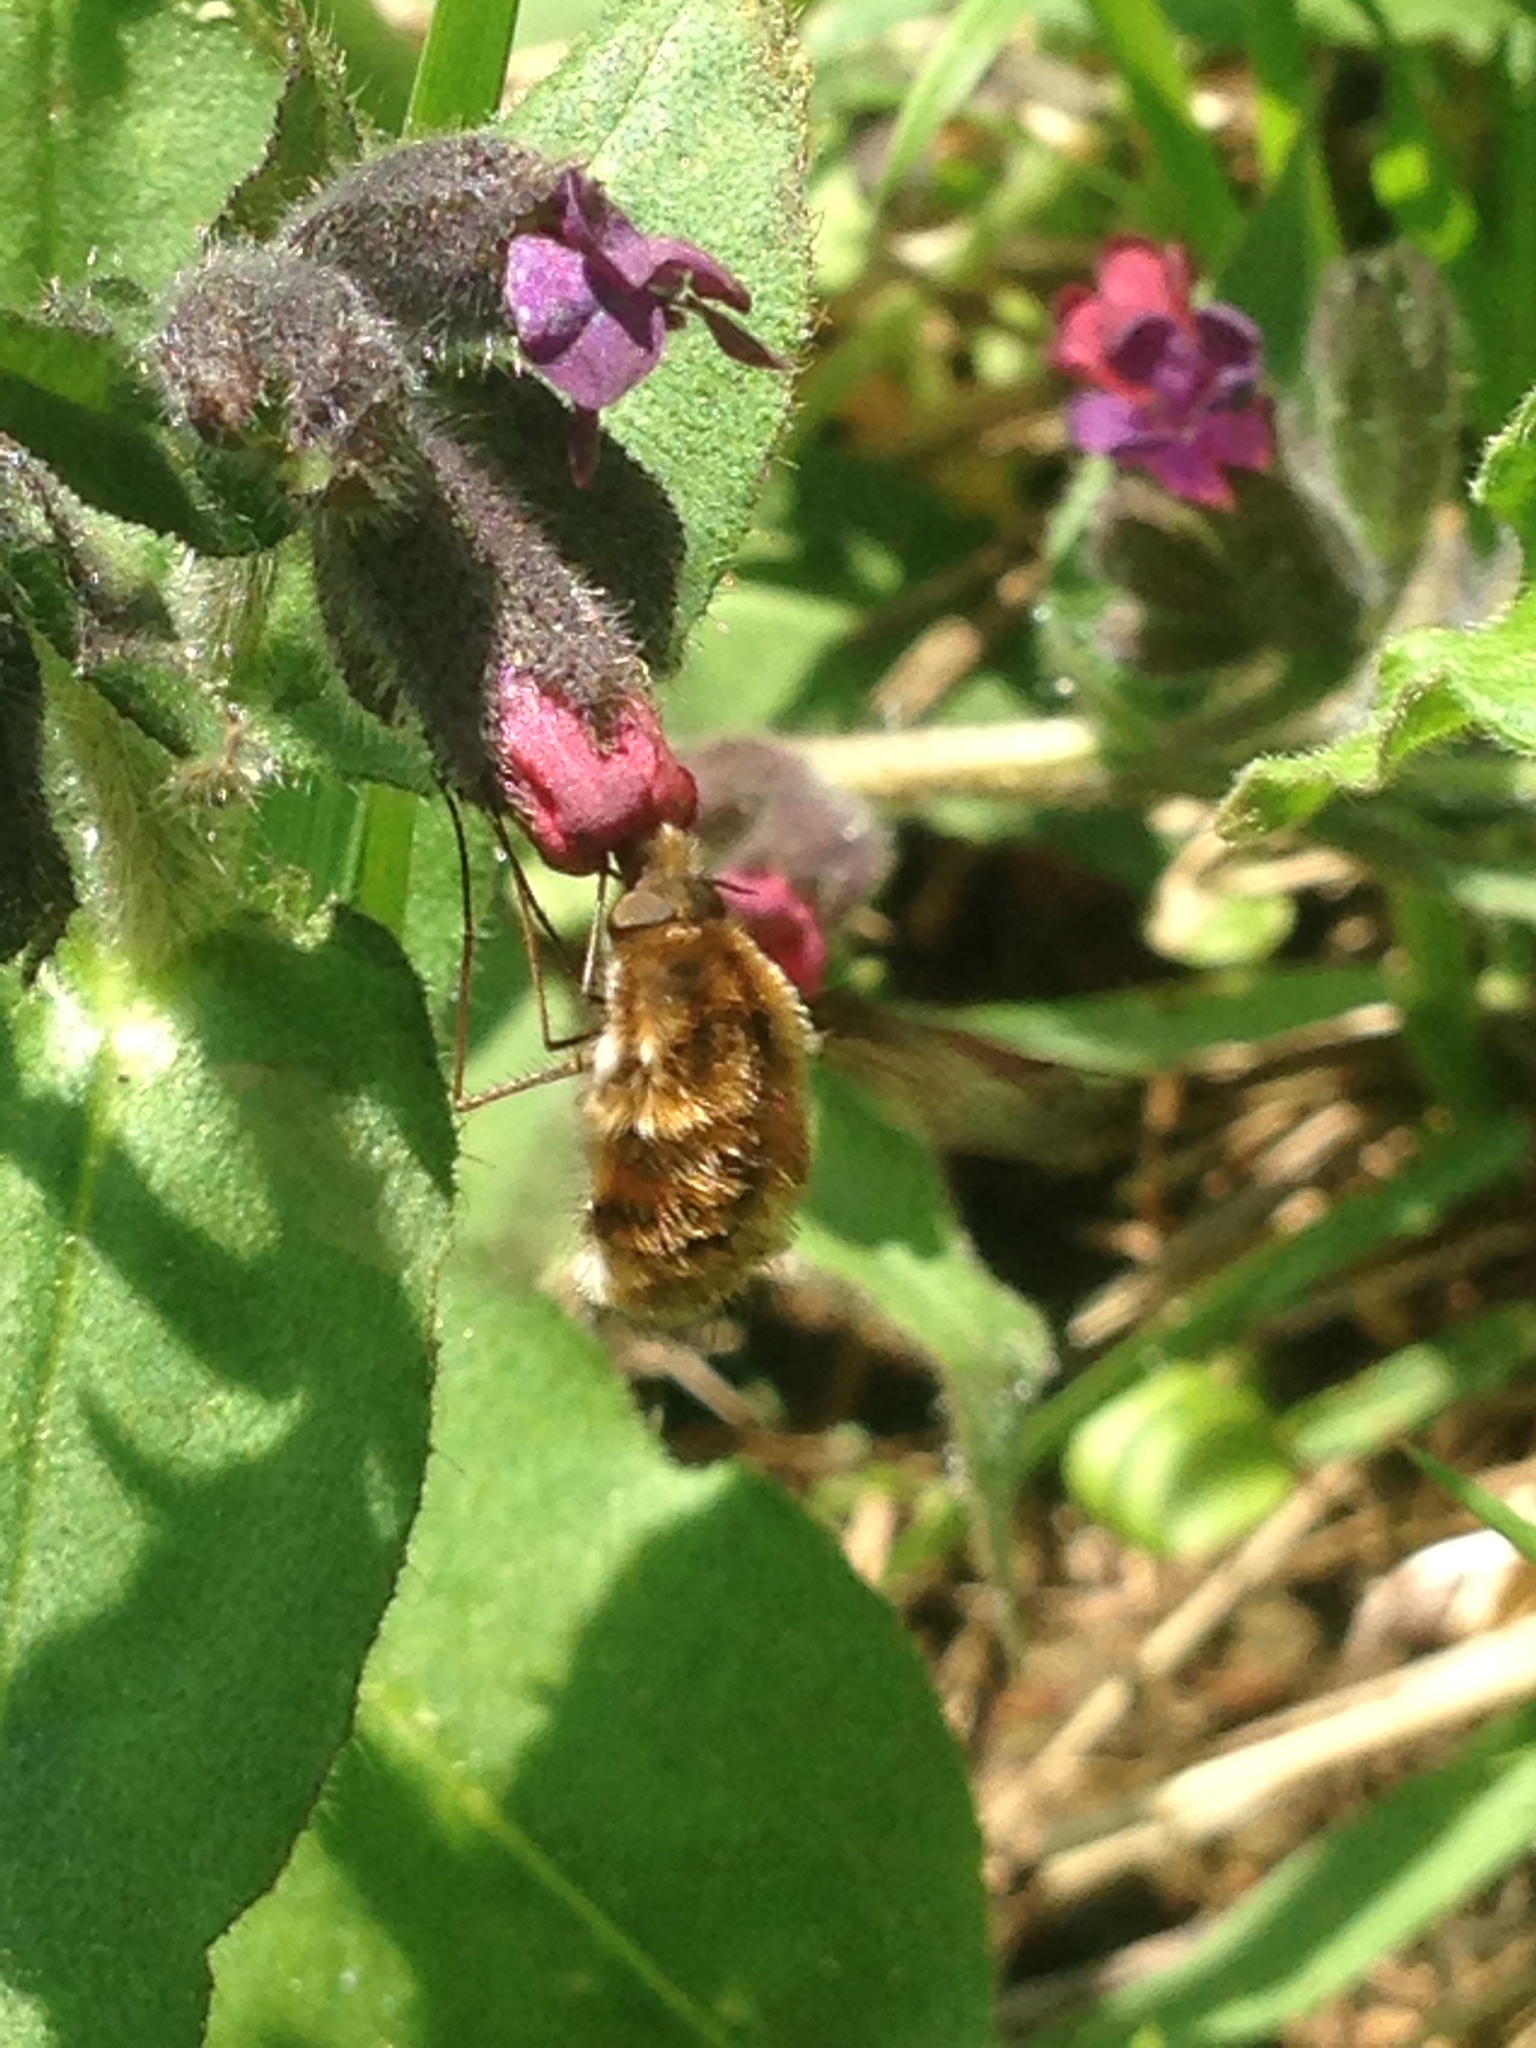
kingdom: Animalia
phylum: Arthropoda
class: Insecta
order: Diptera
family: Bombyliidae
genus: Bombylius
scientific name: Bombylius major
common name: Bee fly
